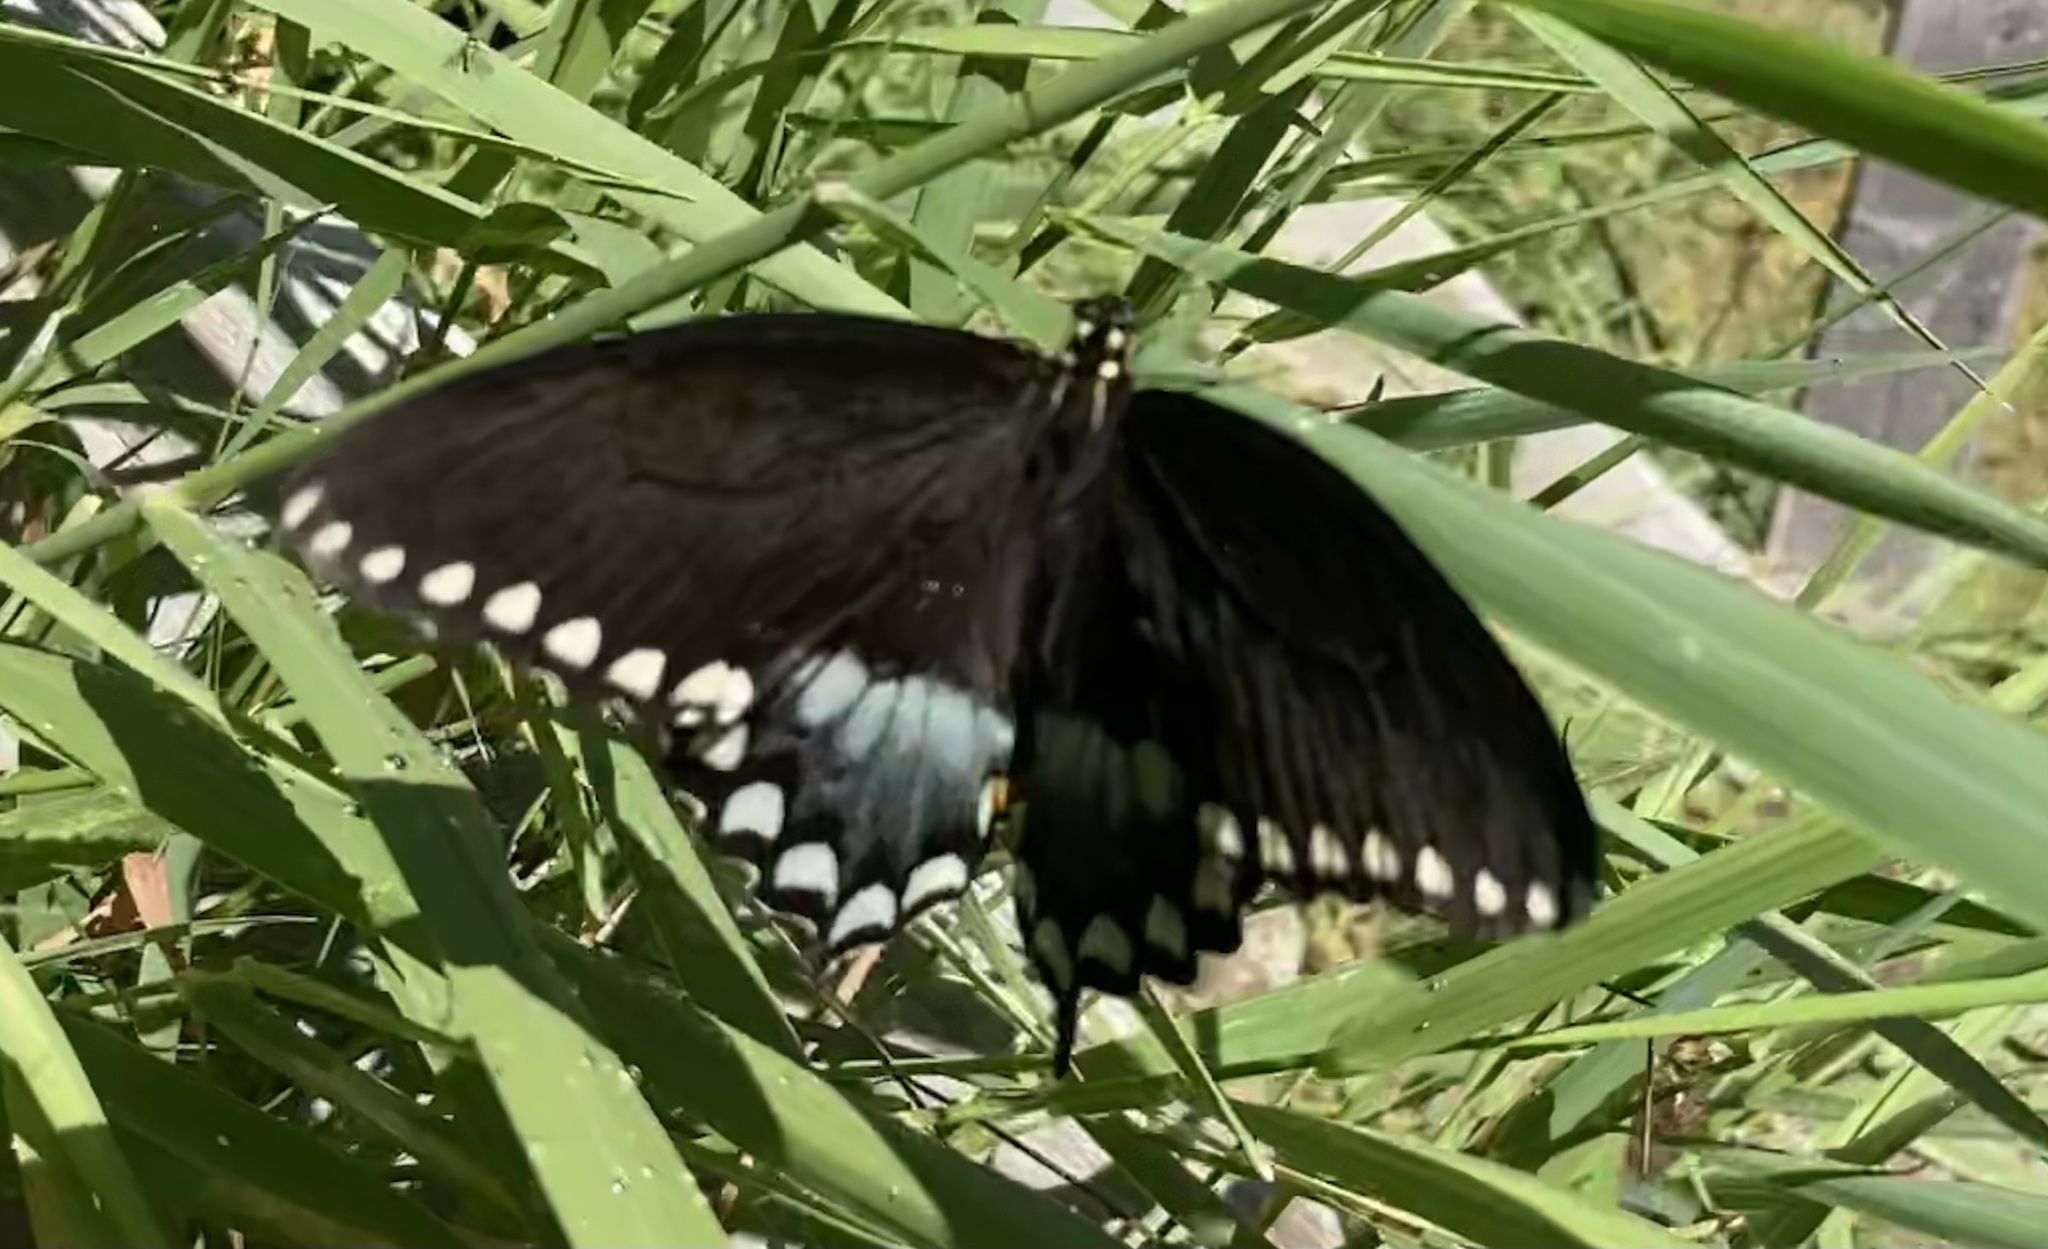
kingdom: Animalia
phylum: Arthropoda
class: Insecta
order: Lepidoptera
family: Papilionidae
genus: Papilio
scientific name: Papilio troilus
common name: Spicebush swallowtail
